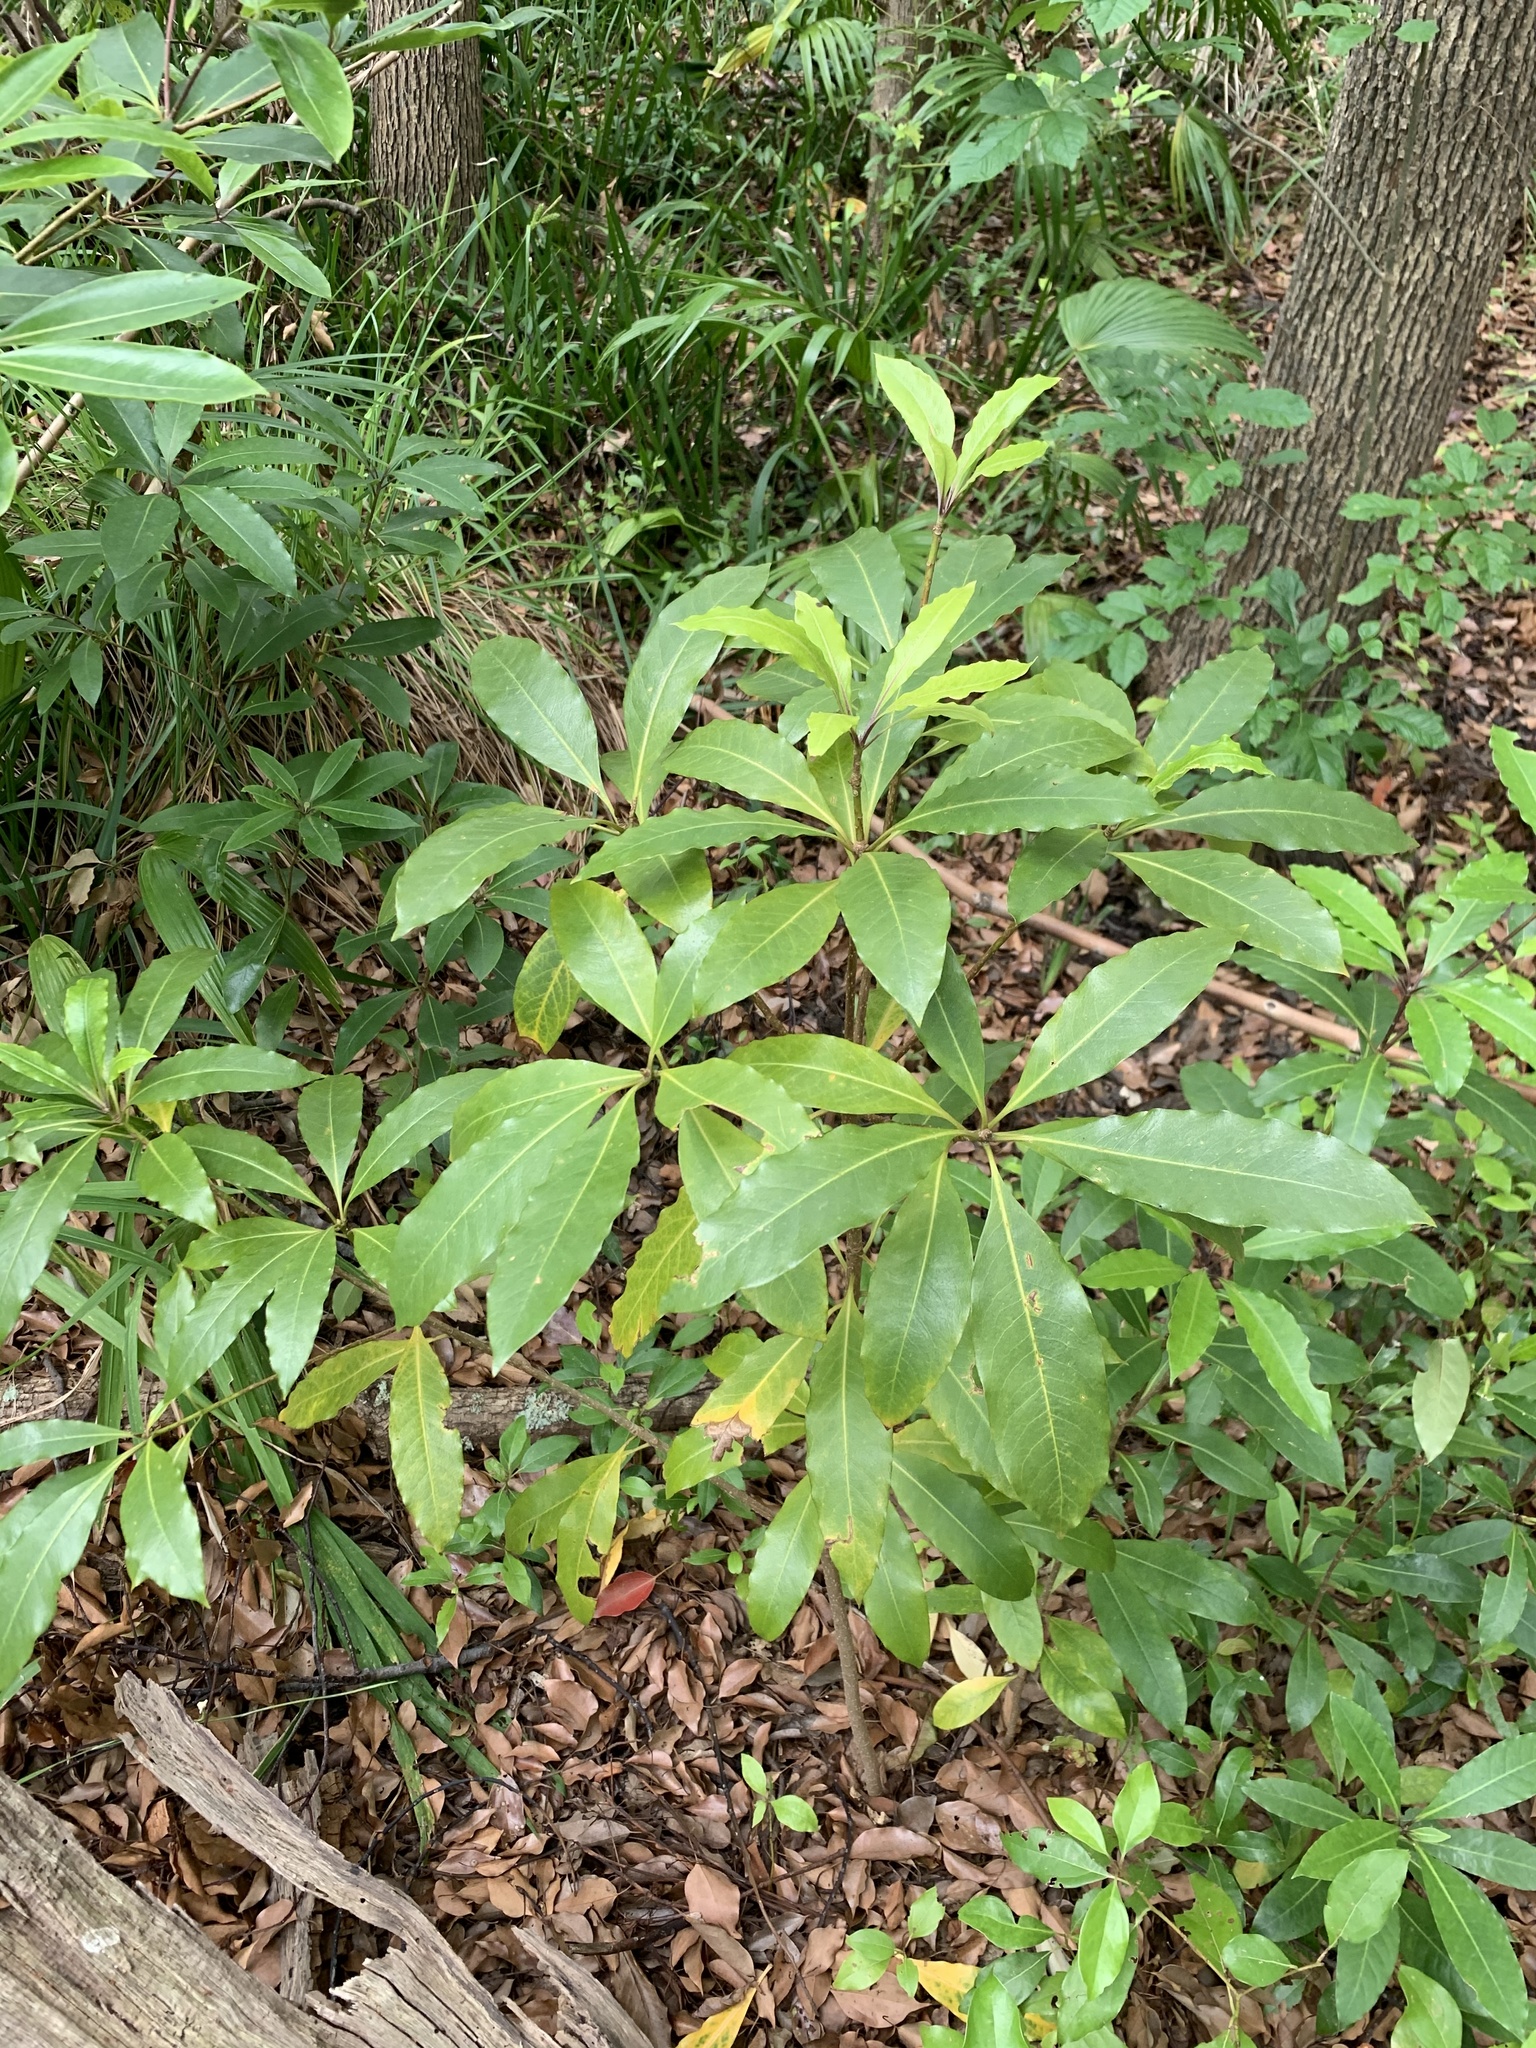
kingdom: Plantae
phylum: Tracheophyta
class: Magnoliopsida
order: Apiales
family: Pittosporaceae
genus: Pittosporum
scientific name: Pittosporum undulatum
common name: Australian cheesewood
